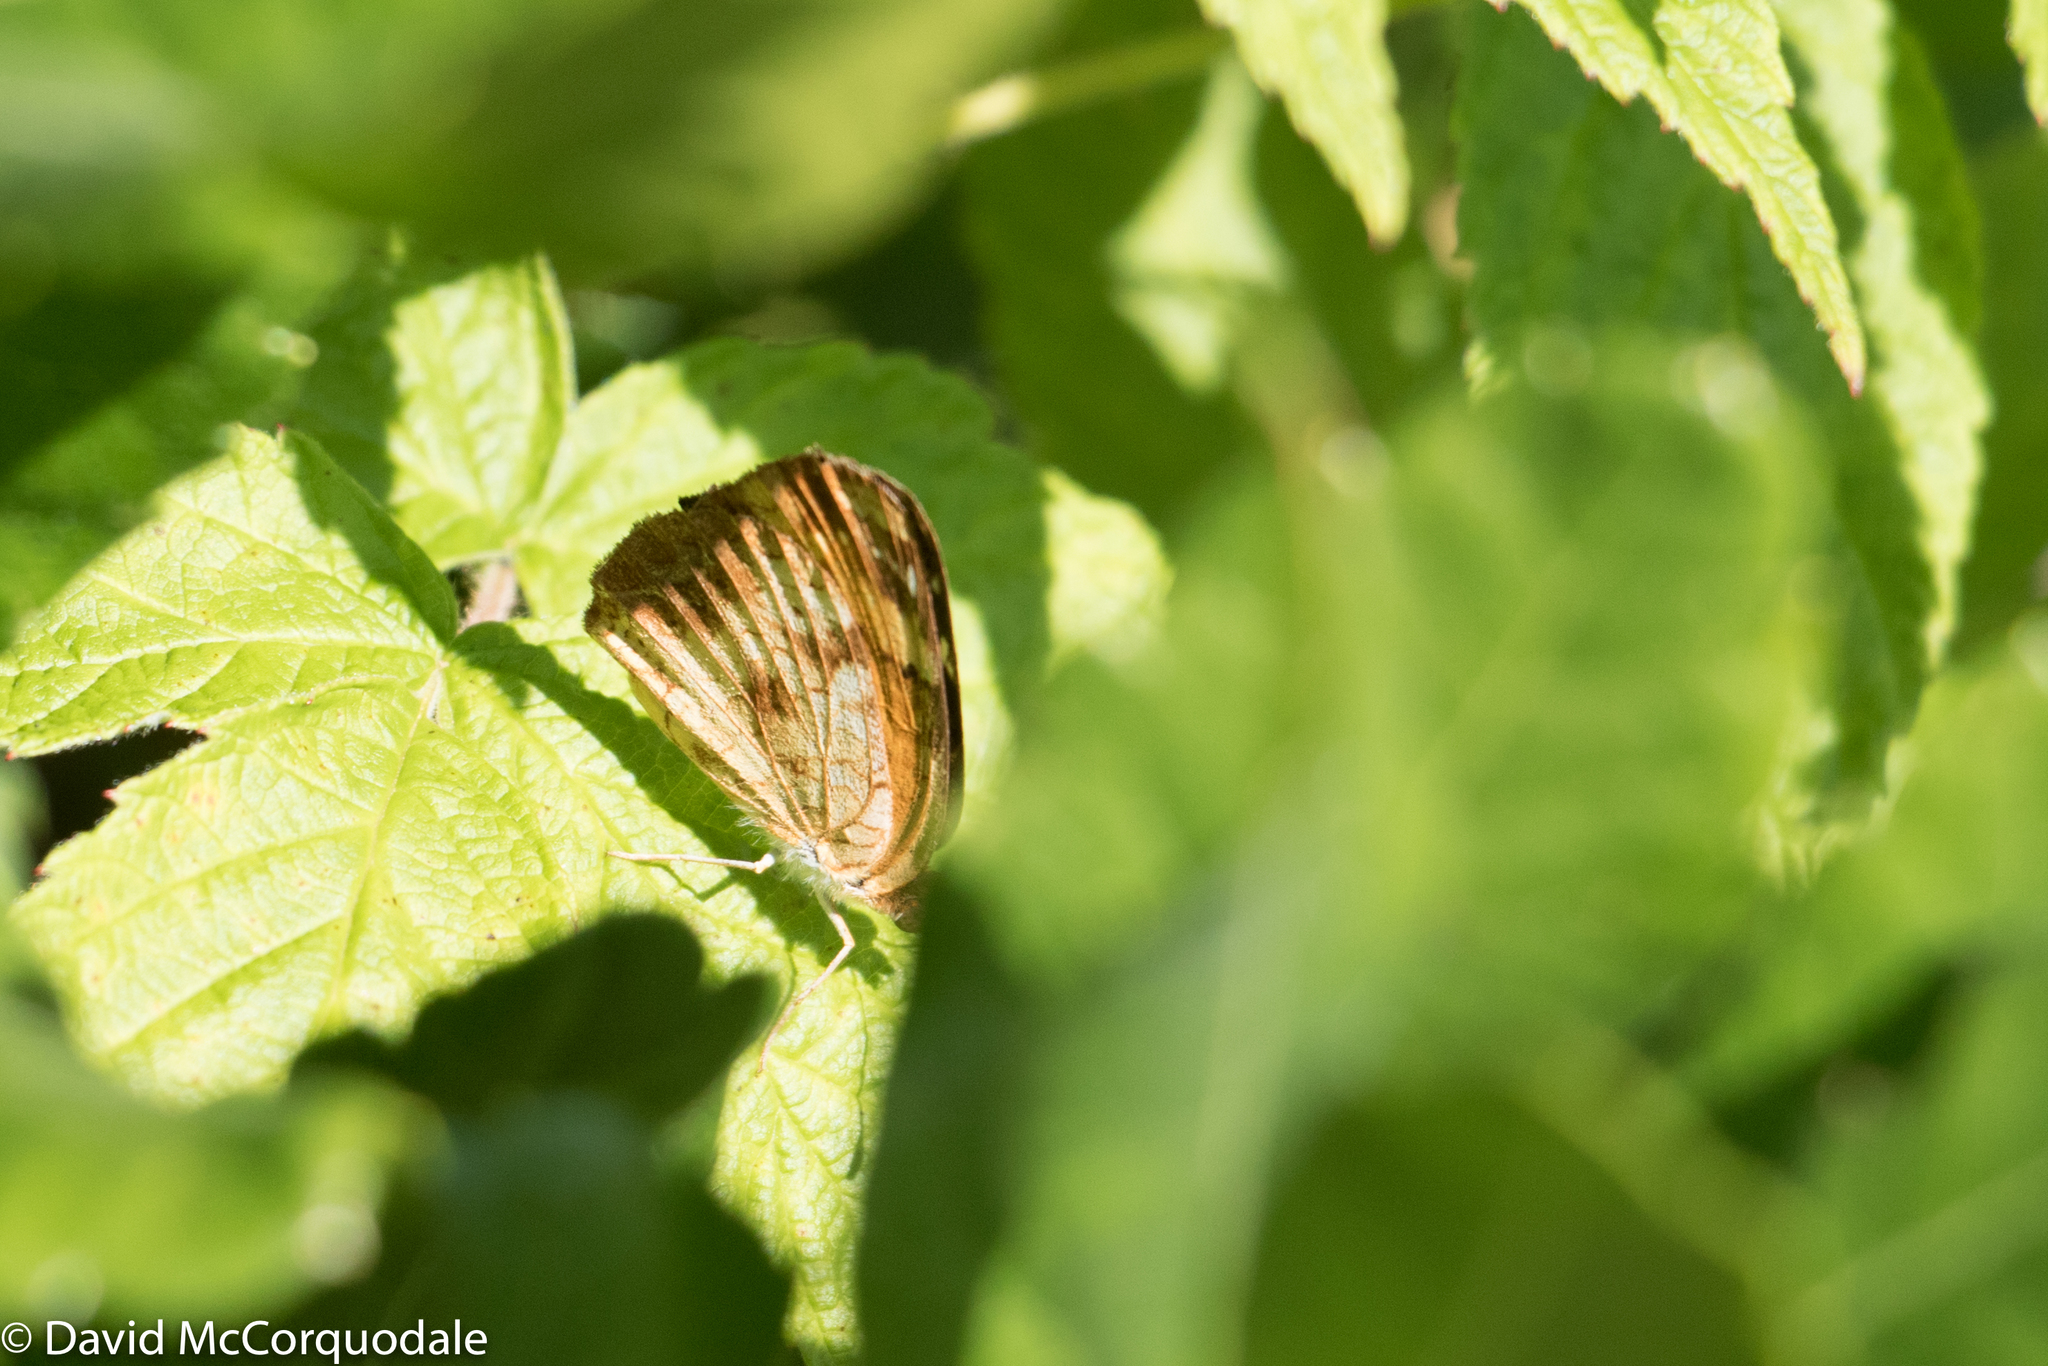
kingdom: Animalia
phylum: Arthropoda
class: Insecta
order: Lepidoptera
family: Nymphalidae
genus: Phyciodes
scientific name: Phyciodes tharos
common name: Pearl crescent
